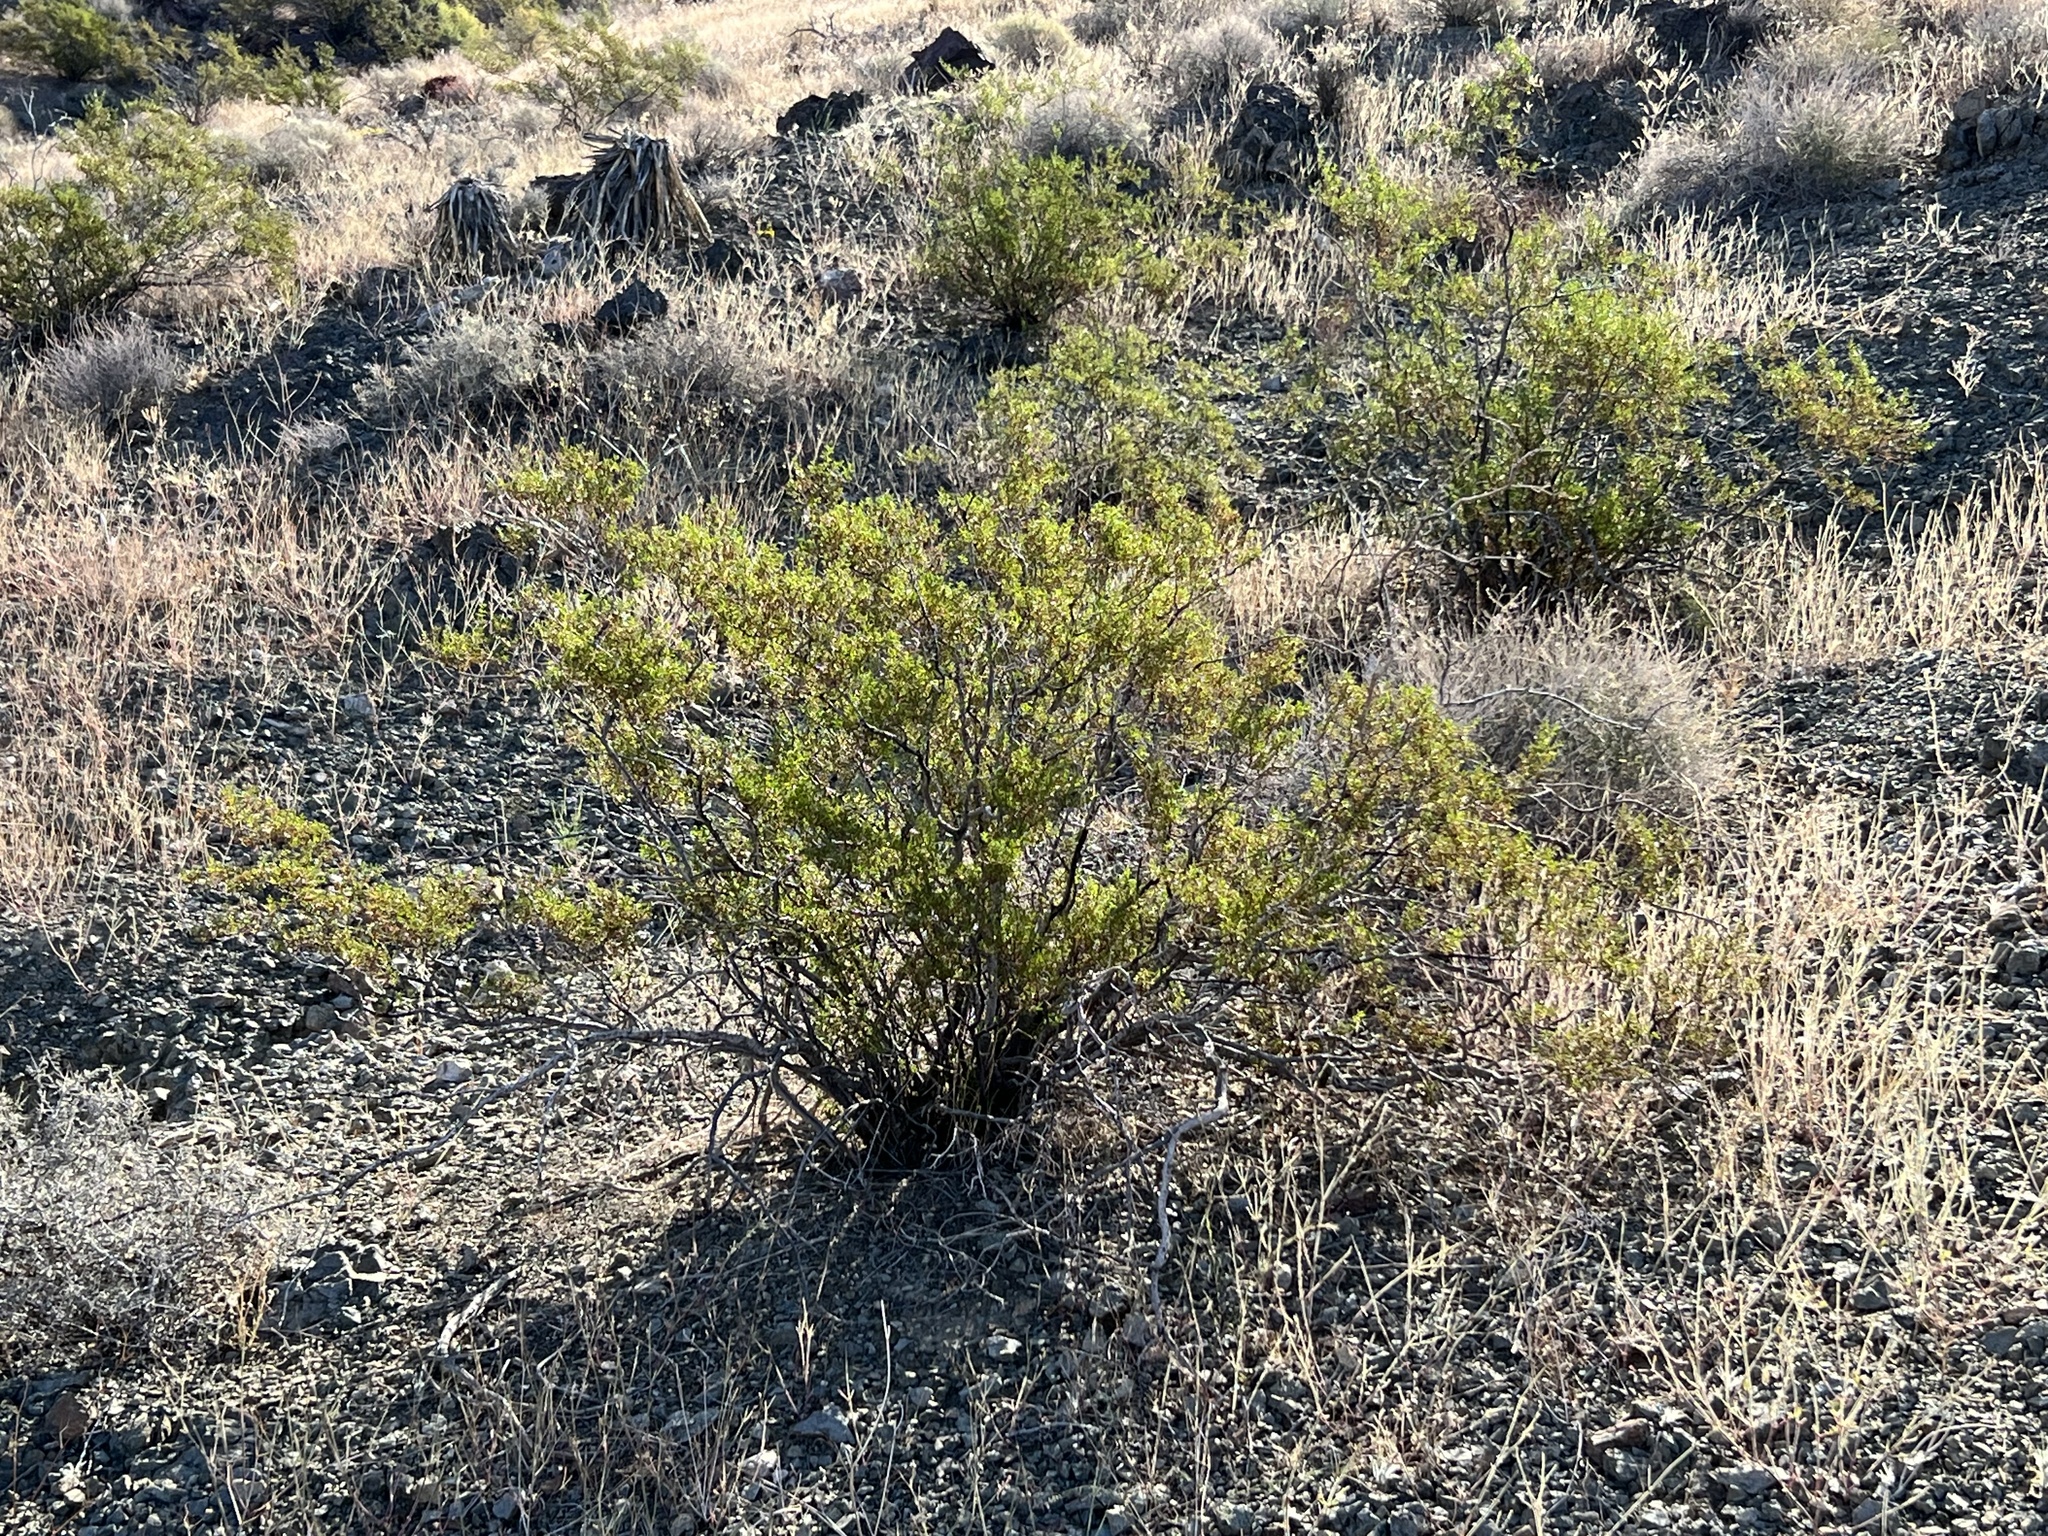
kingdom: Plantae
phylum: Tracheophyta
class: Magnoliopsida
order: Zygophyllales
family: Zygophyllaceae
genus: Larrea
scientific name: Larrea tridentata
